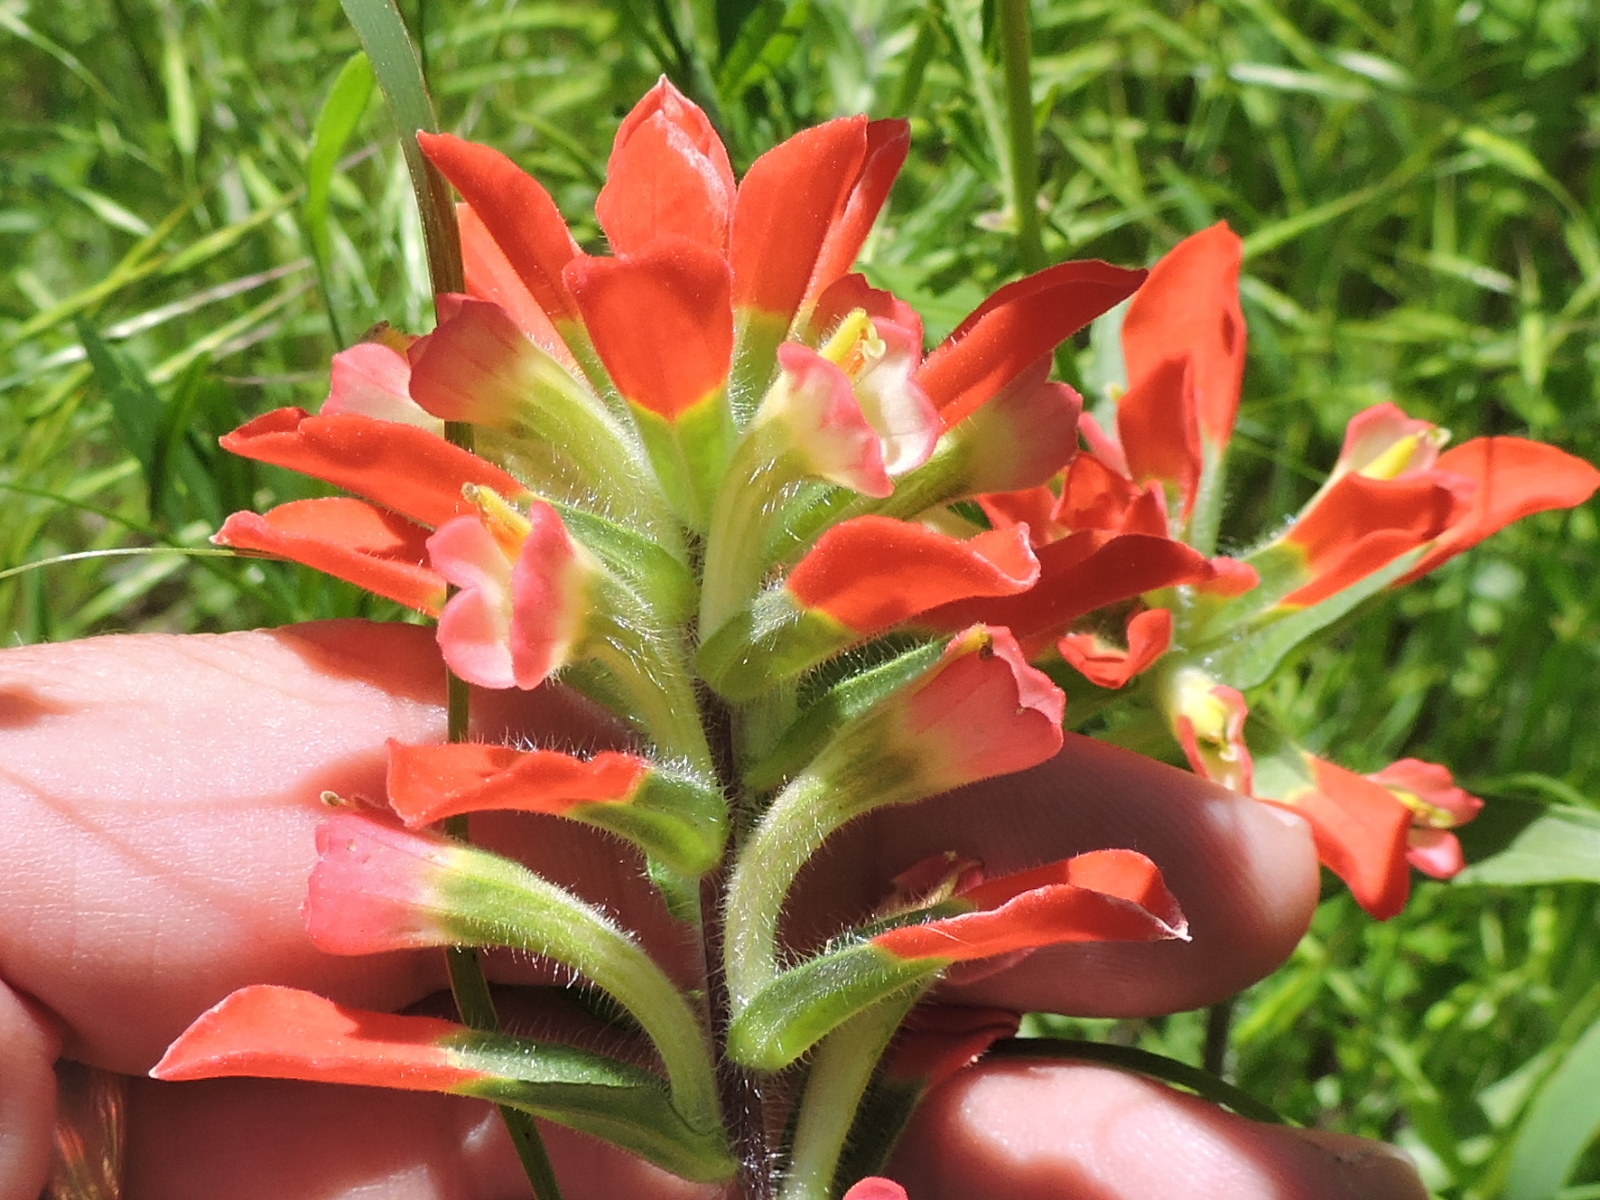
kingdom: Plantae
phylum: Tracheophyta
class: Magnoliopsida
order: Lamiales
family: Orobanchaceae
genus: Castilleja
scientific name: Castilleja indivisa
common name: Texas paintbrush
